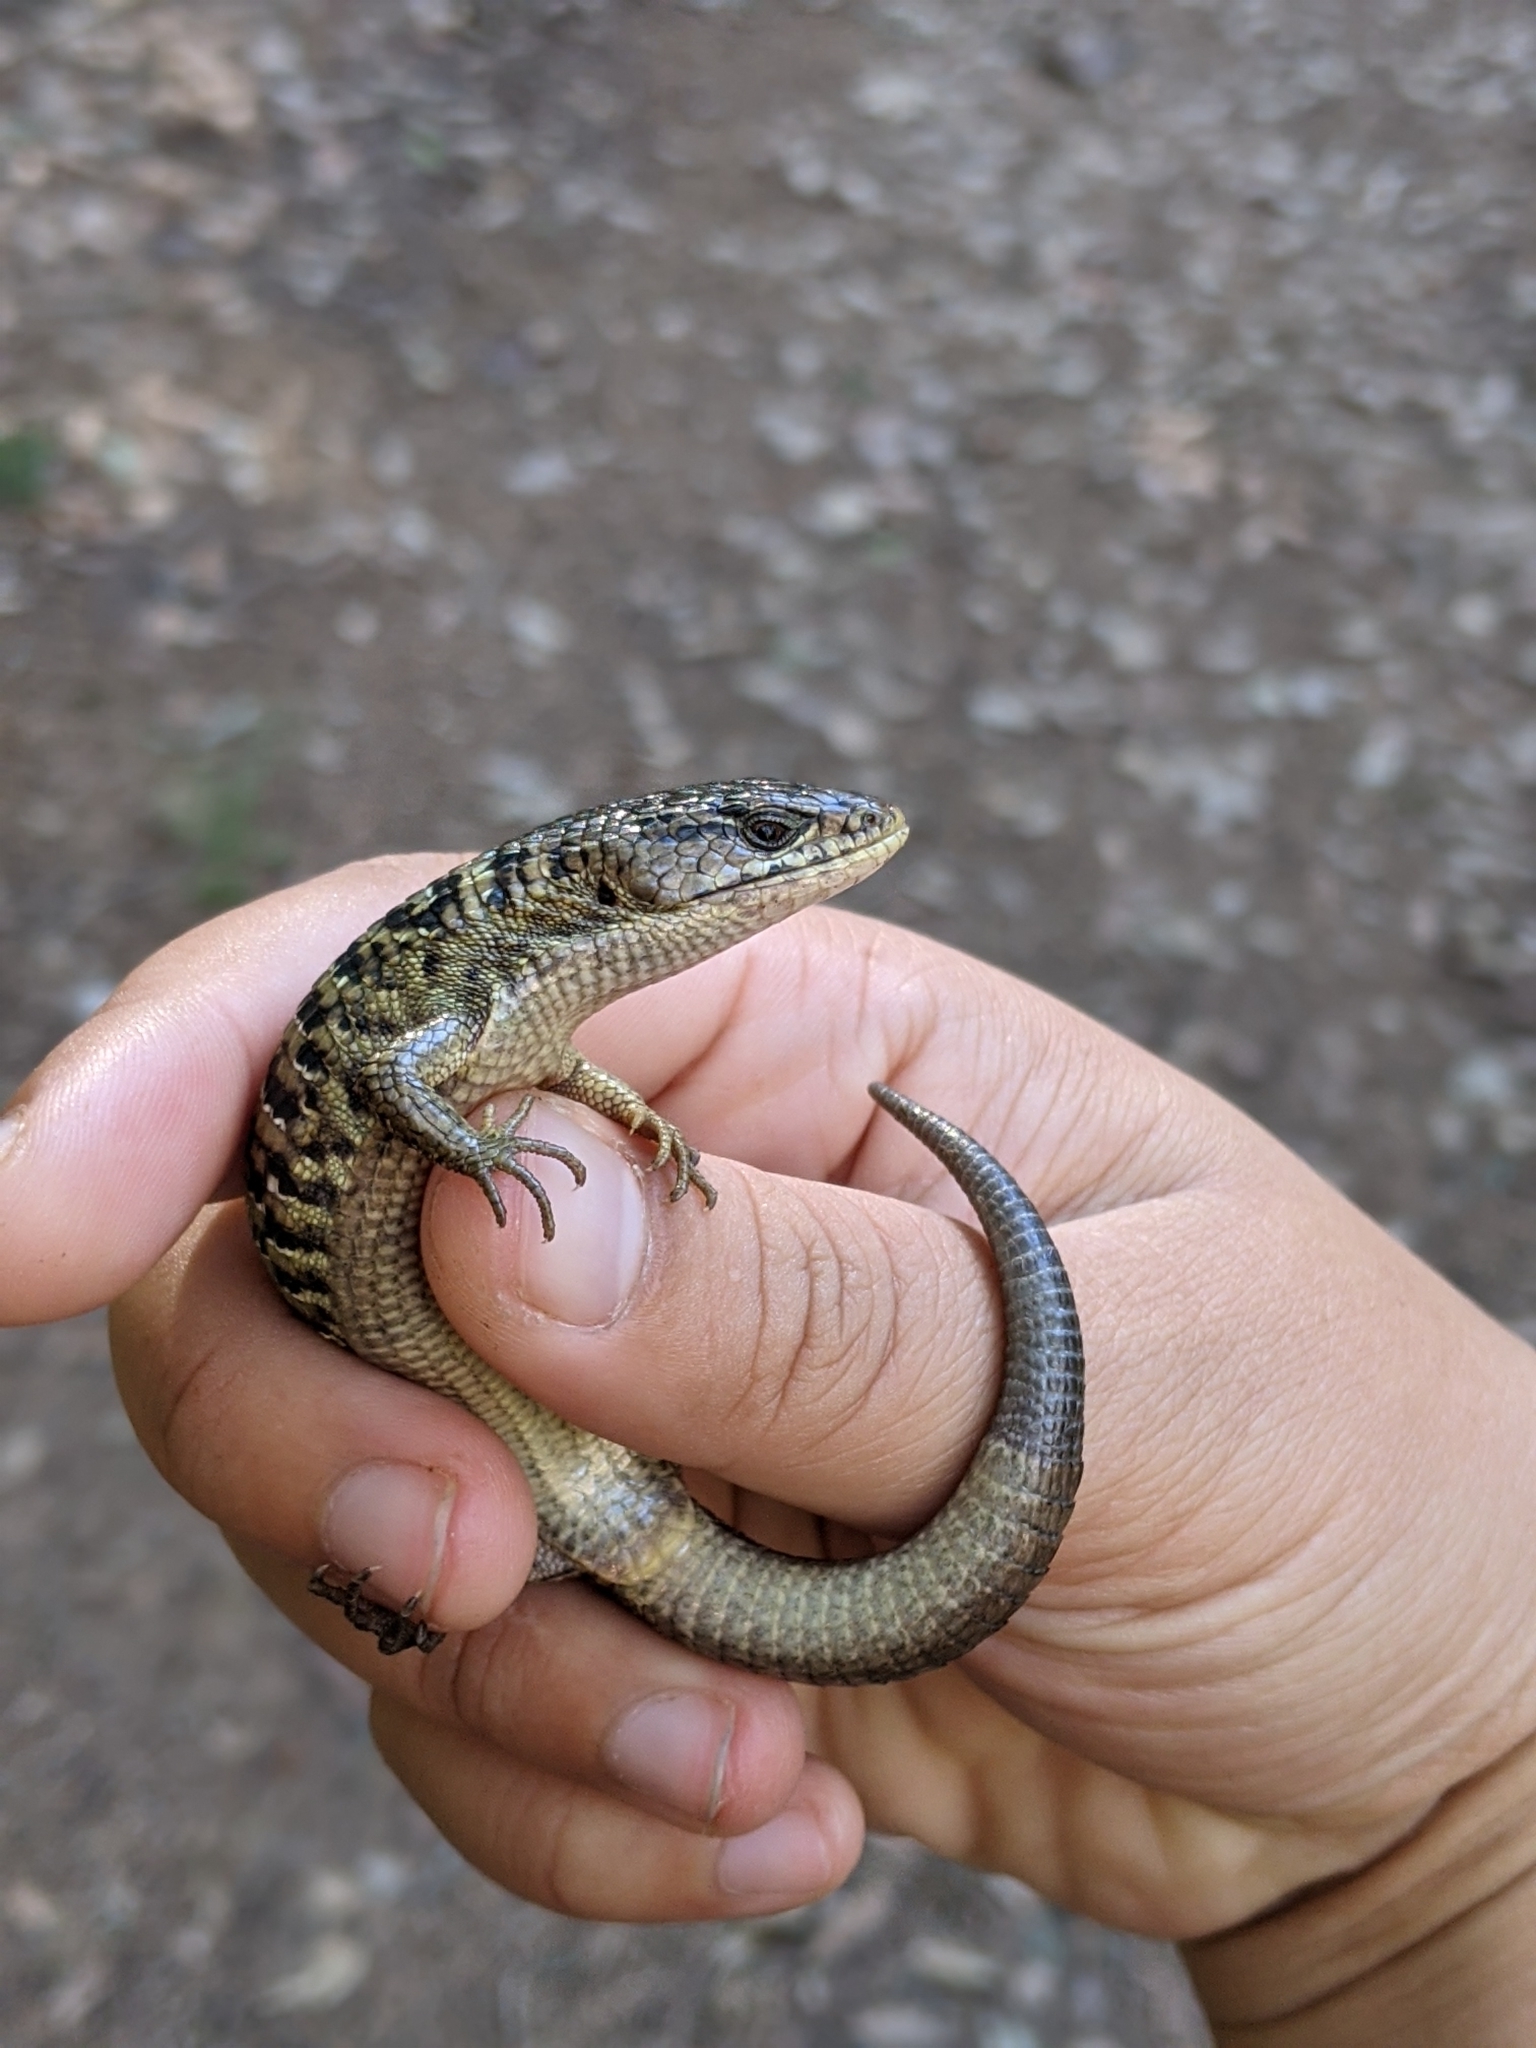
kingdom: Animalia
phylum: Chordata
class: Squamata
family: Anguidae
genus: Elgaria
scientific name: Elgaria coerulea
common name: Northern alligator lizard
